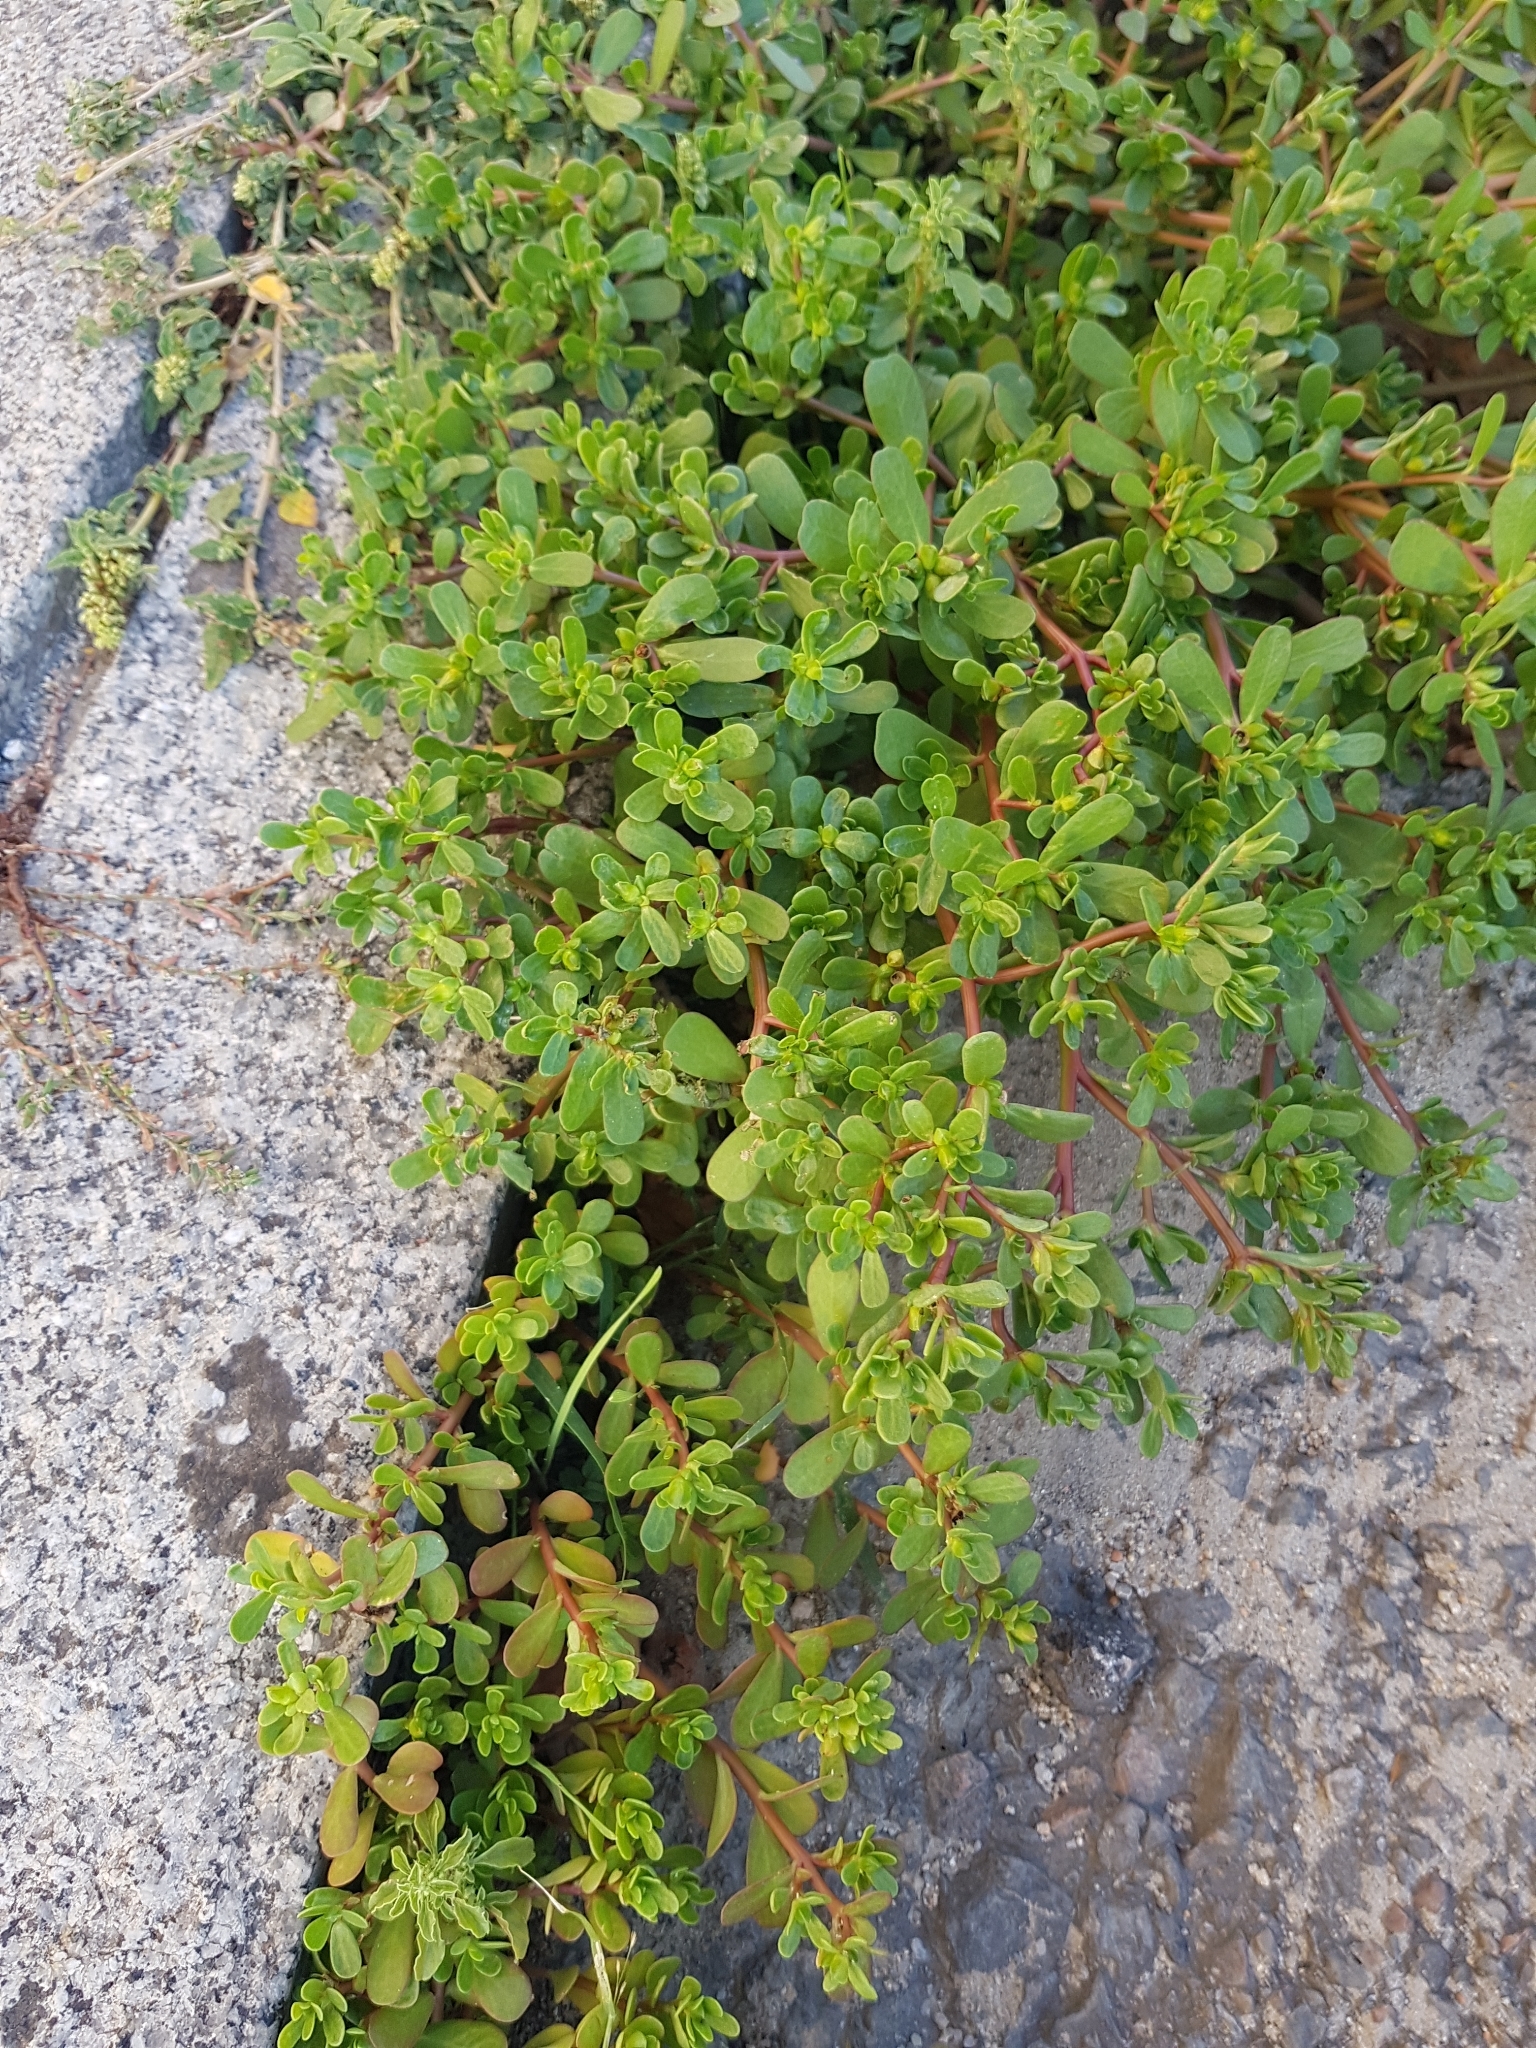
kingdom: Plantae
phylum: Tracheophyta
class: Magnoliopsida
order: Caryophyllales
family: Portulacaceae
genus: Portulaca
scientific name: Portulaca oleracea
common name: Common purslane
